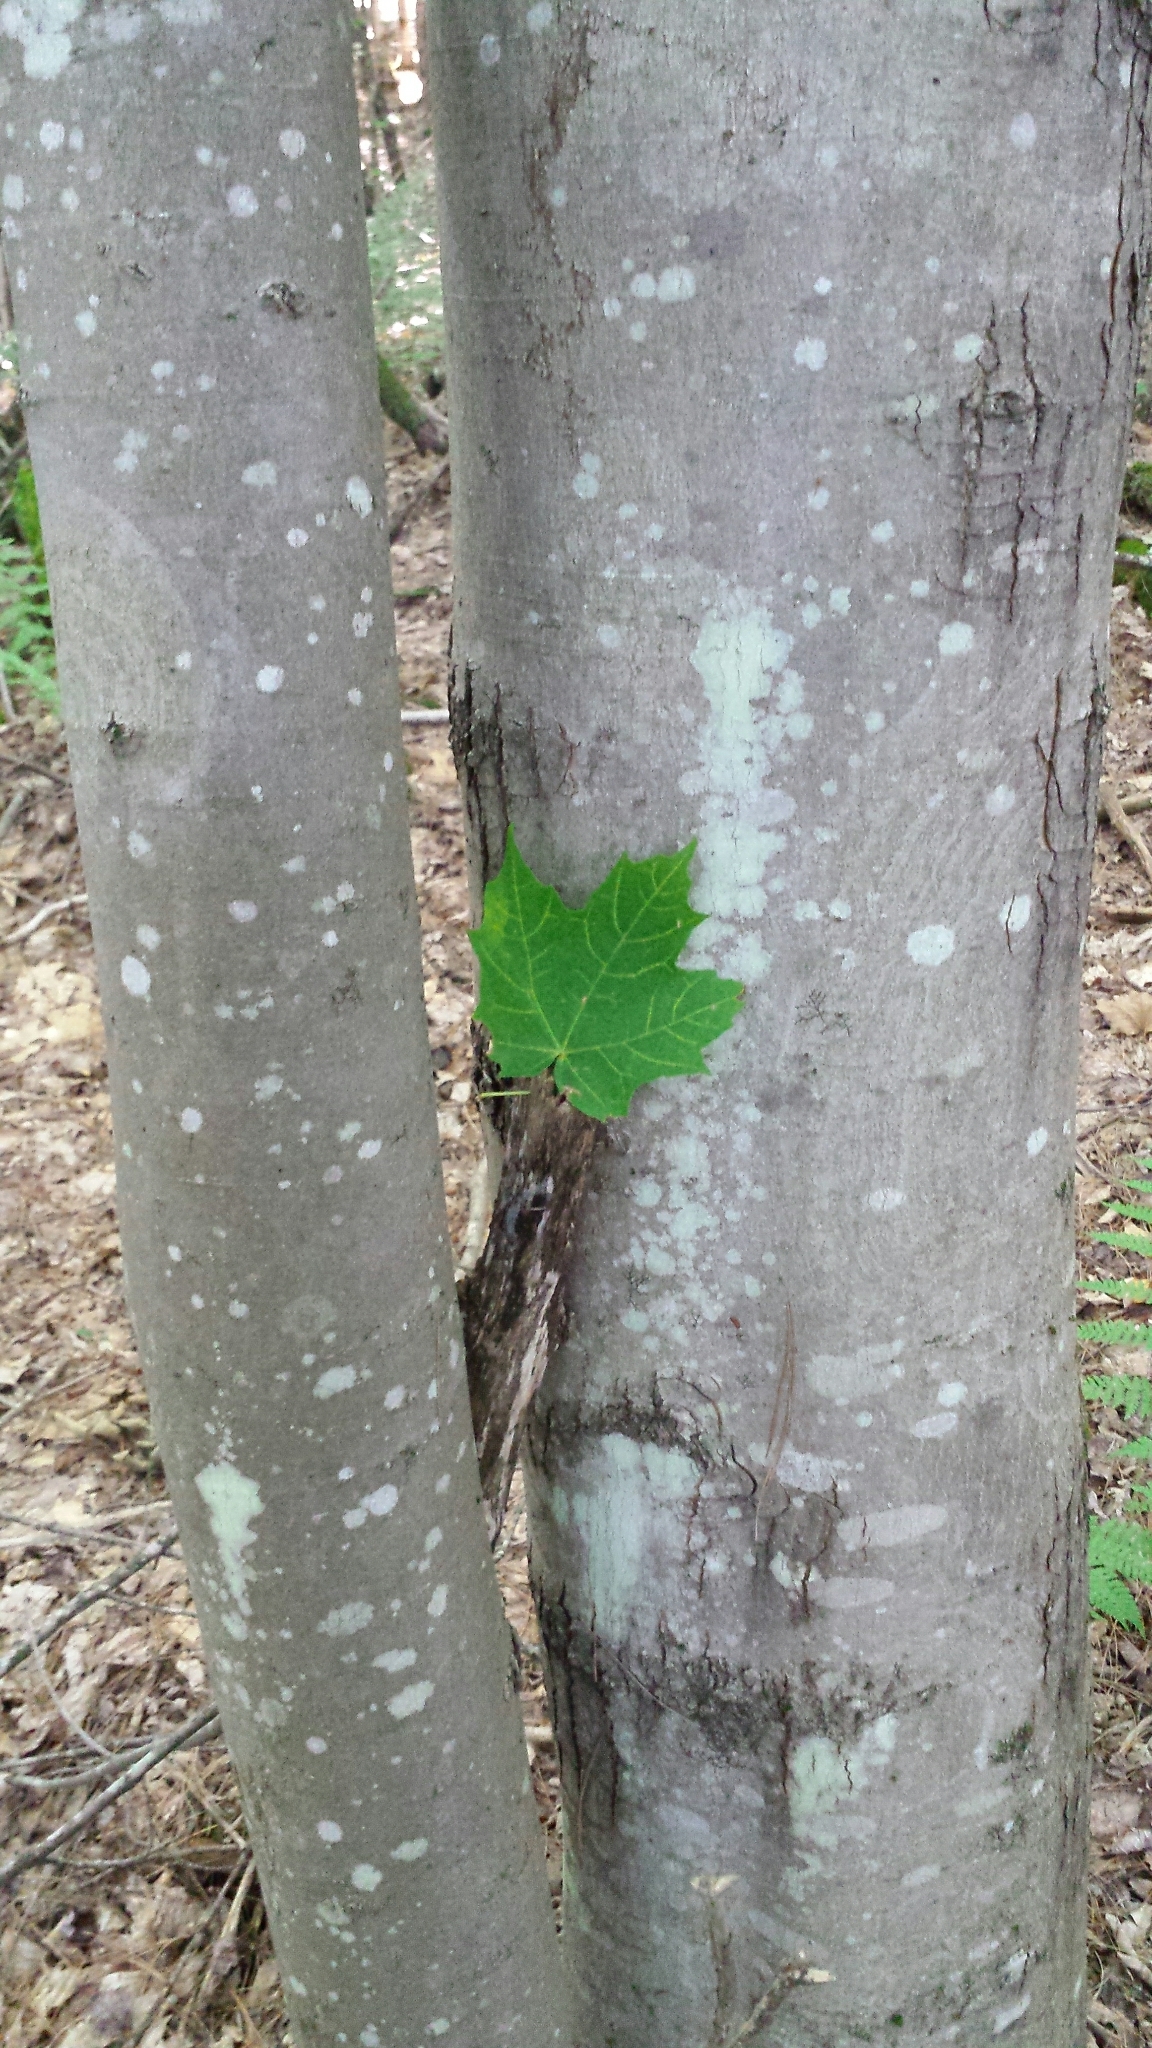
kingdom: Plantae
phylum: Tracheophyta
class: Magnoliopsida
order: Sapindales
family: Sapindaceae
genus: Acer
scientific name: Acer rubrum
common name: Red maple
